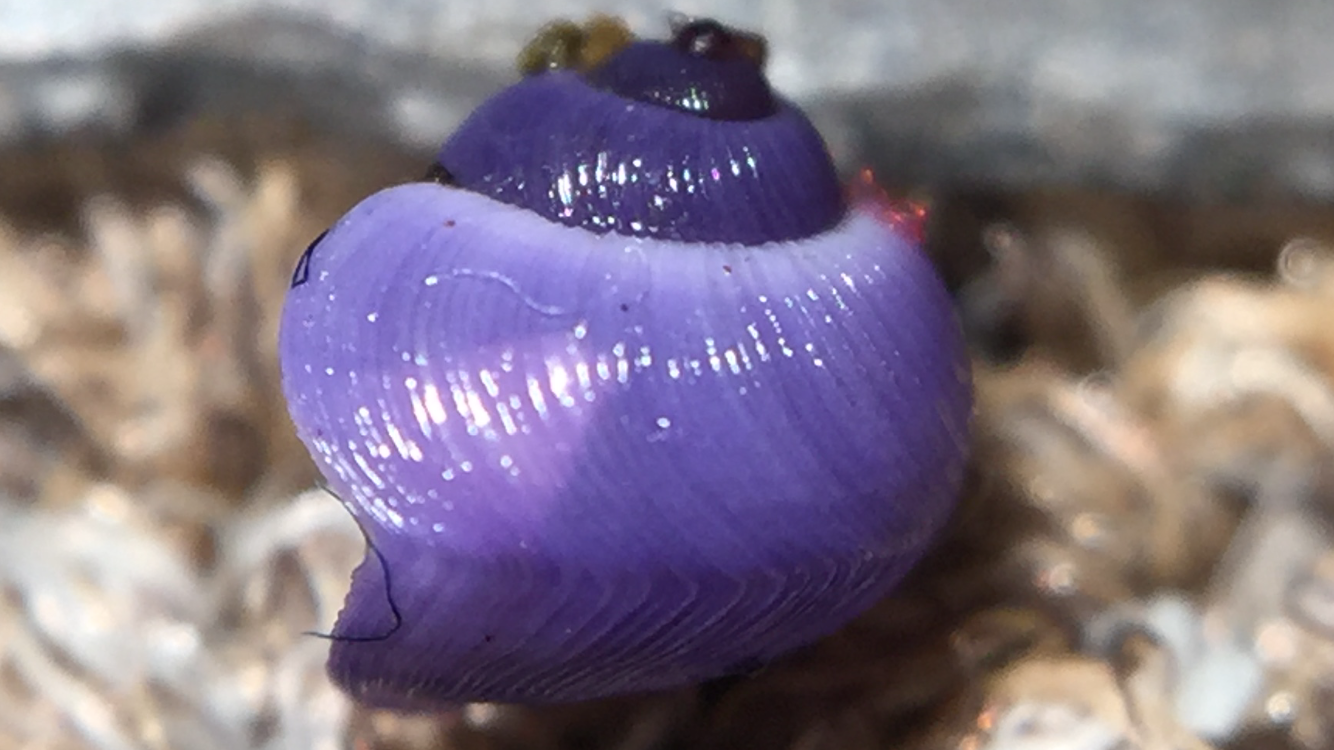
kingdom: Animalia
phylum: Mollusca
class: Gastropoda
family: Epitoniidae
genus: Janthina
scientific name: Janthina exigua
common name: Dwarf janthina
